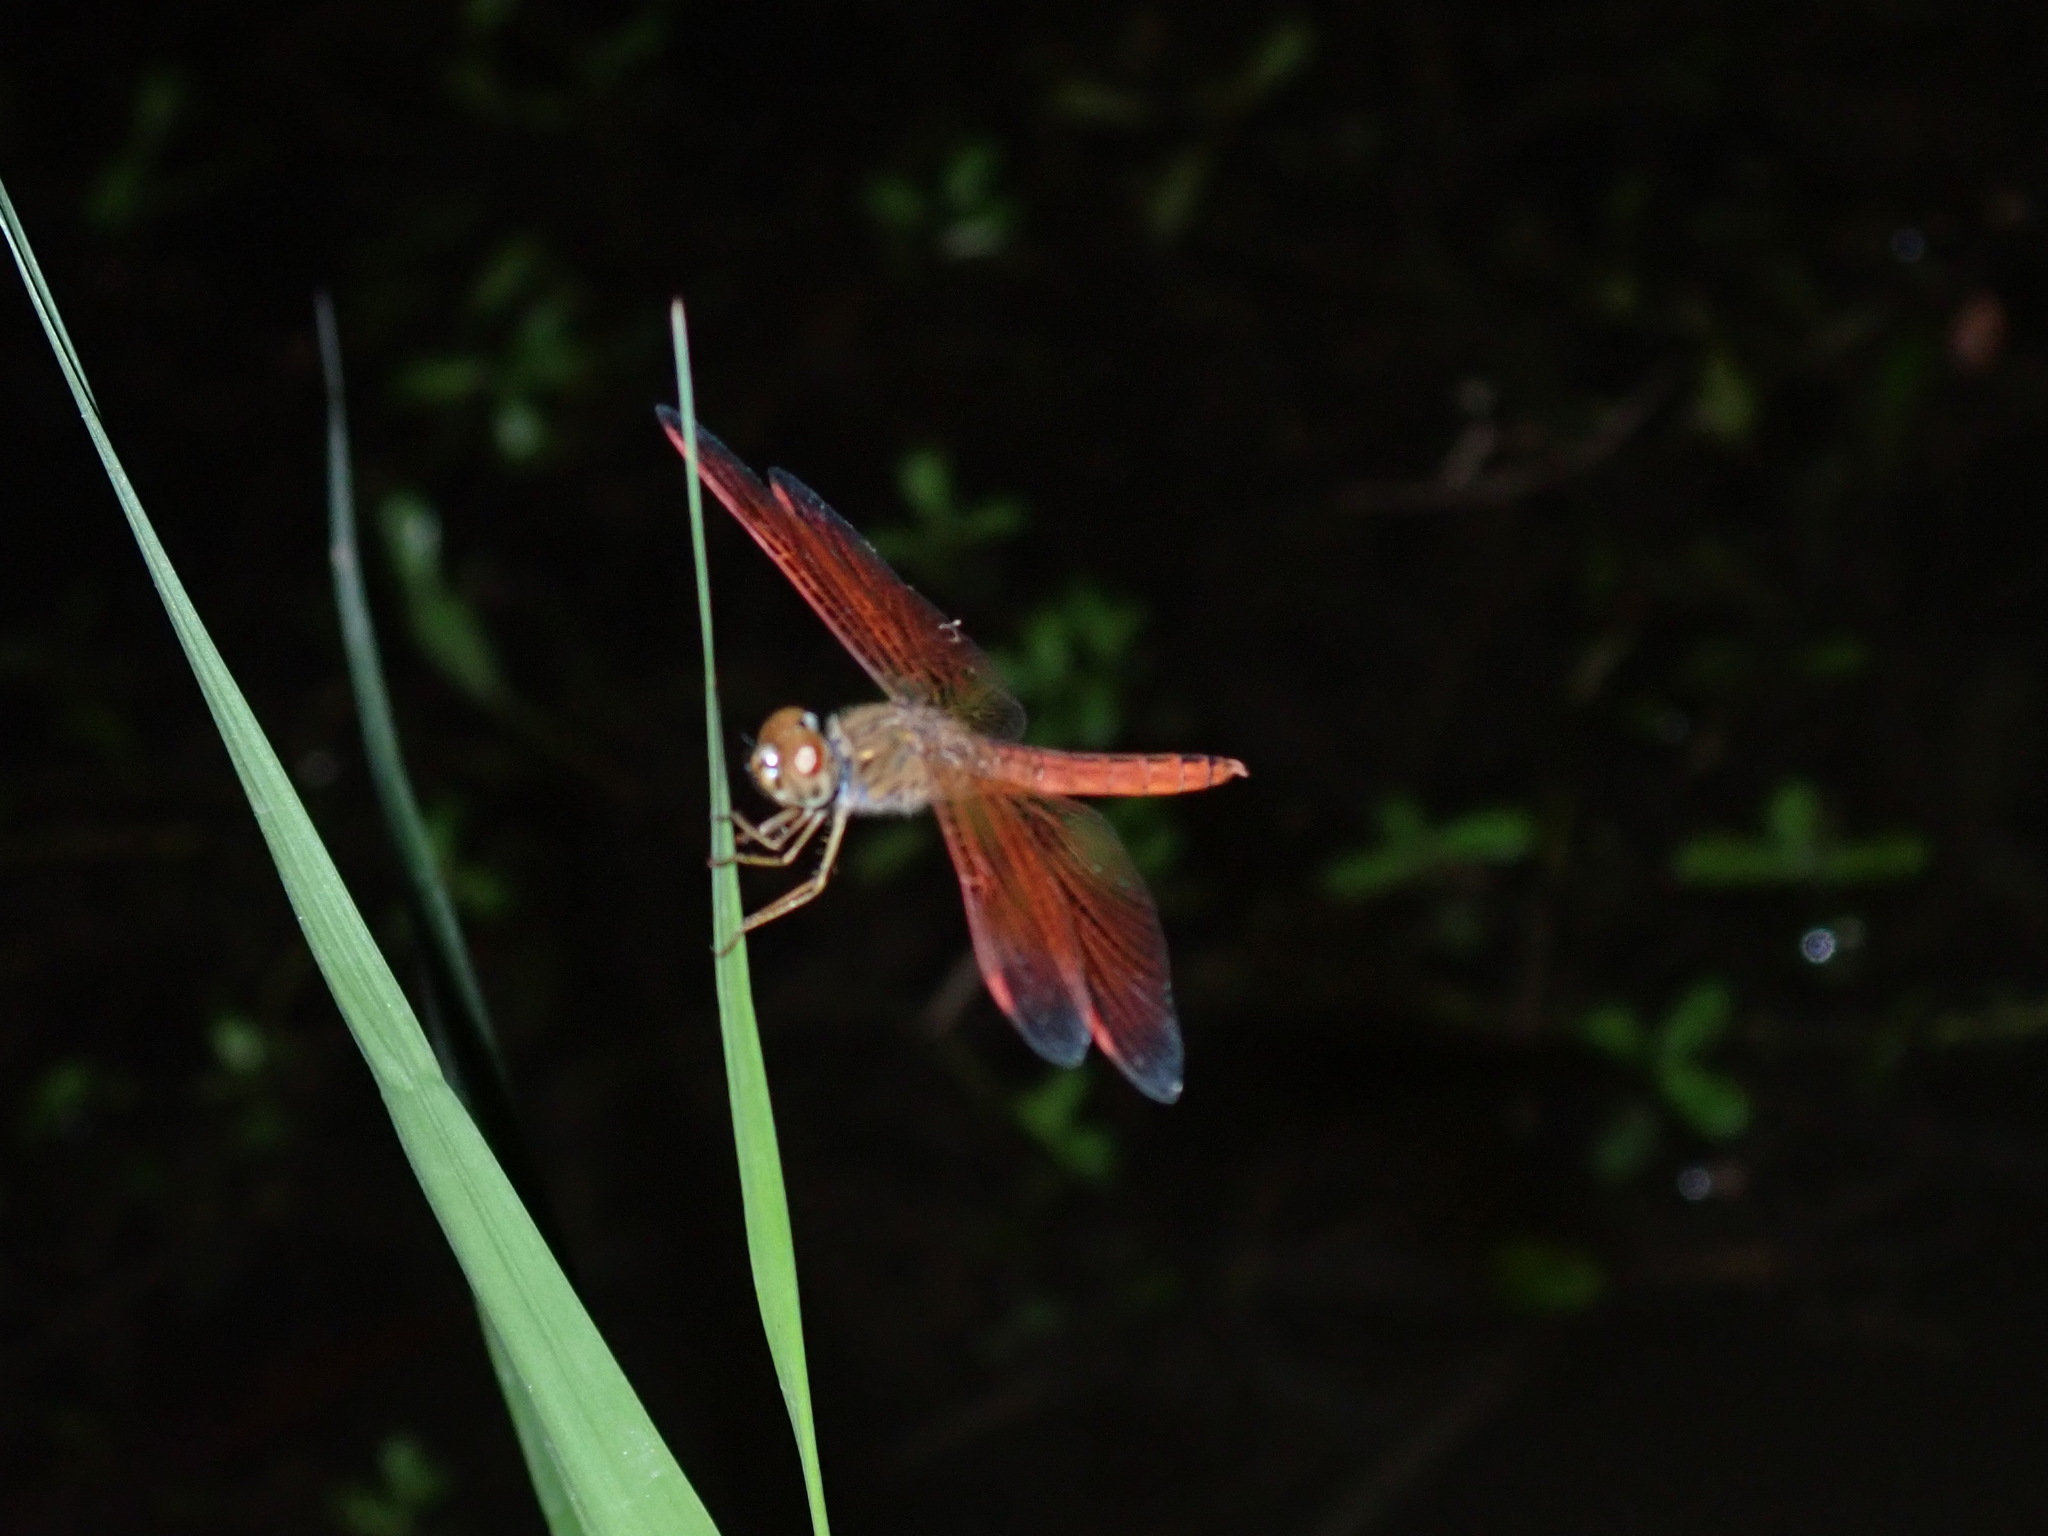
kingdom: Animalia
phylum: Arthropoda
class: Insecta
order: Odonata
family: Libellulidae
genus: Brachythemis
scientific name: Brachythemis contaminata
